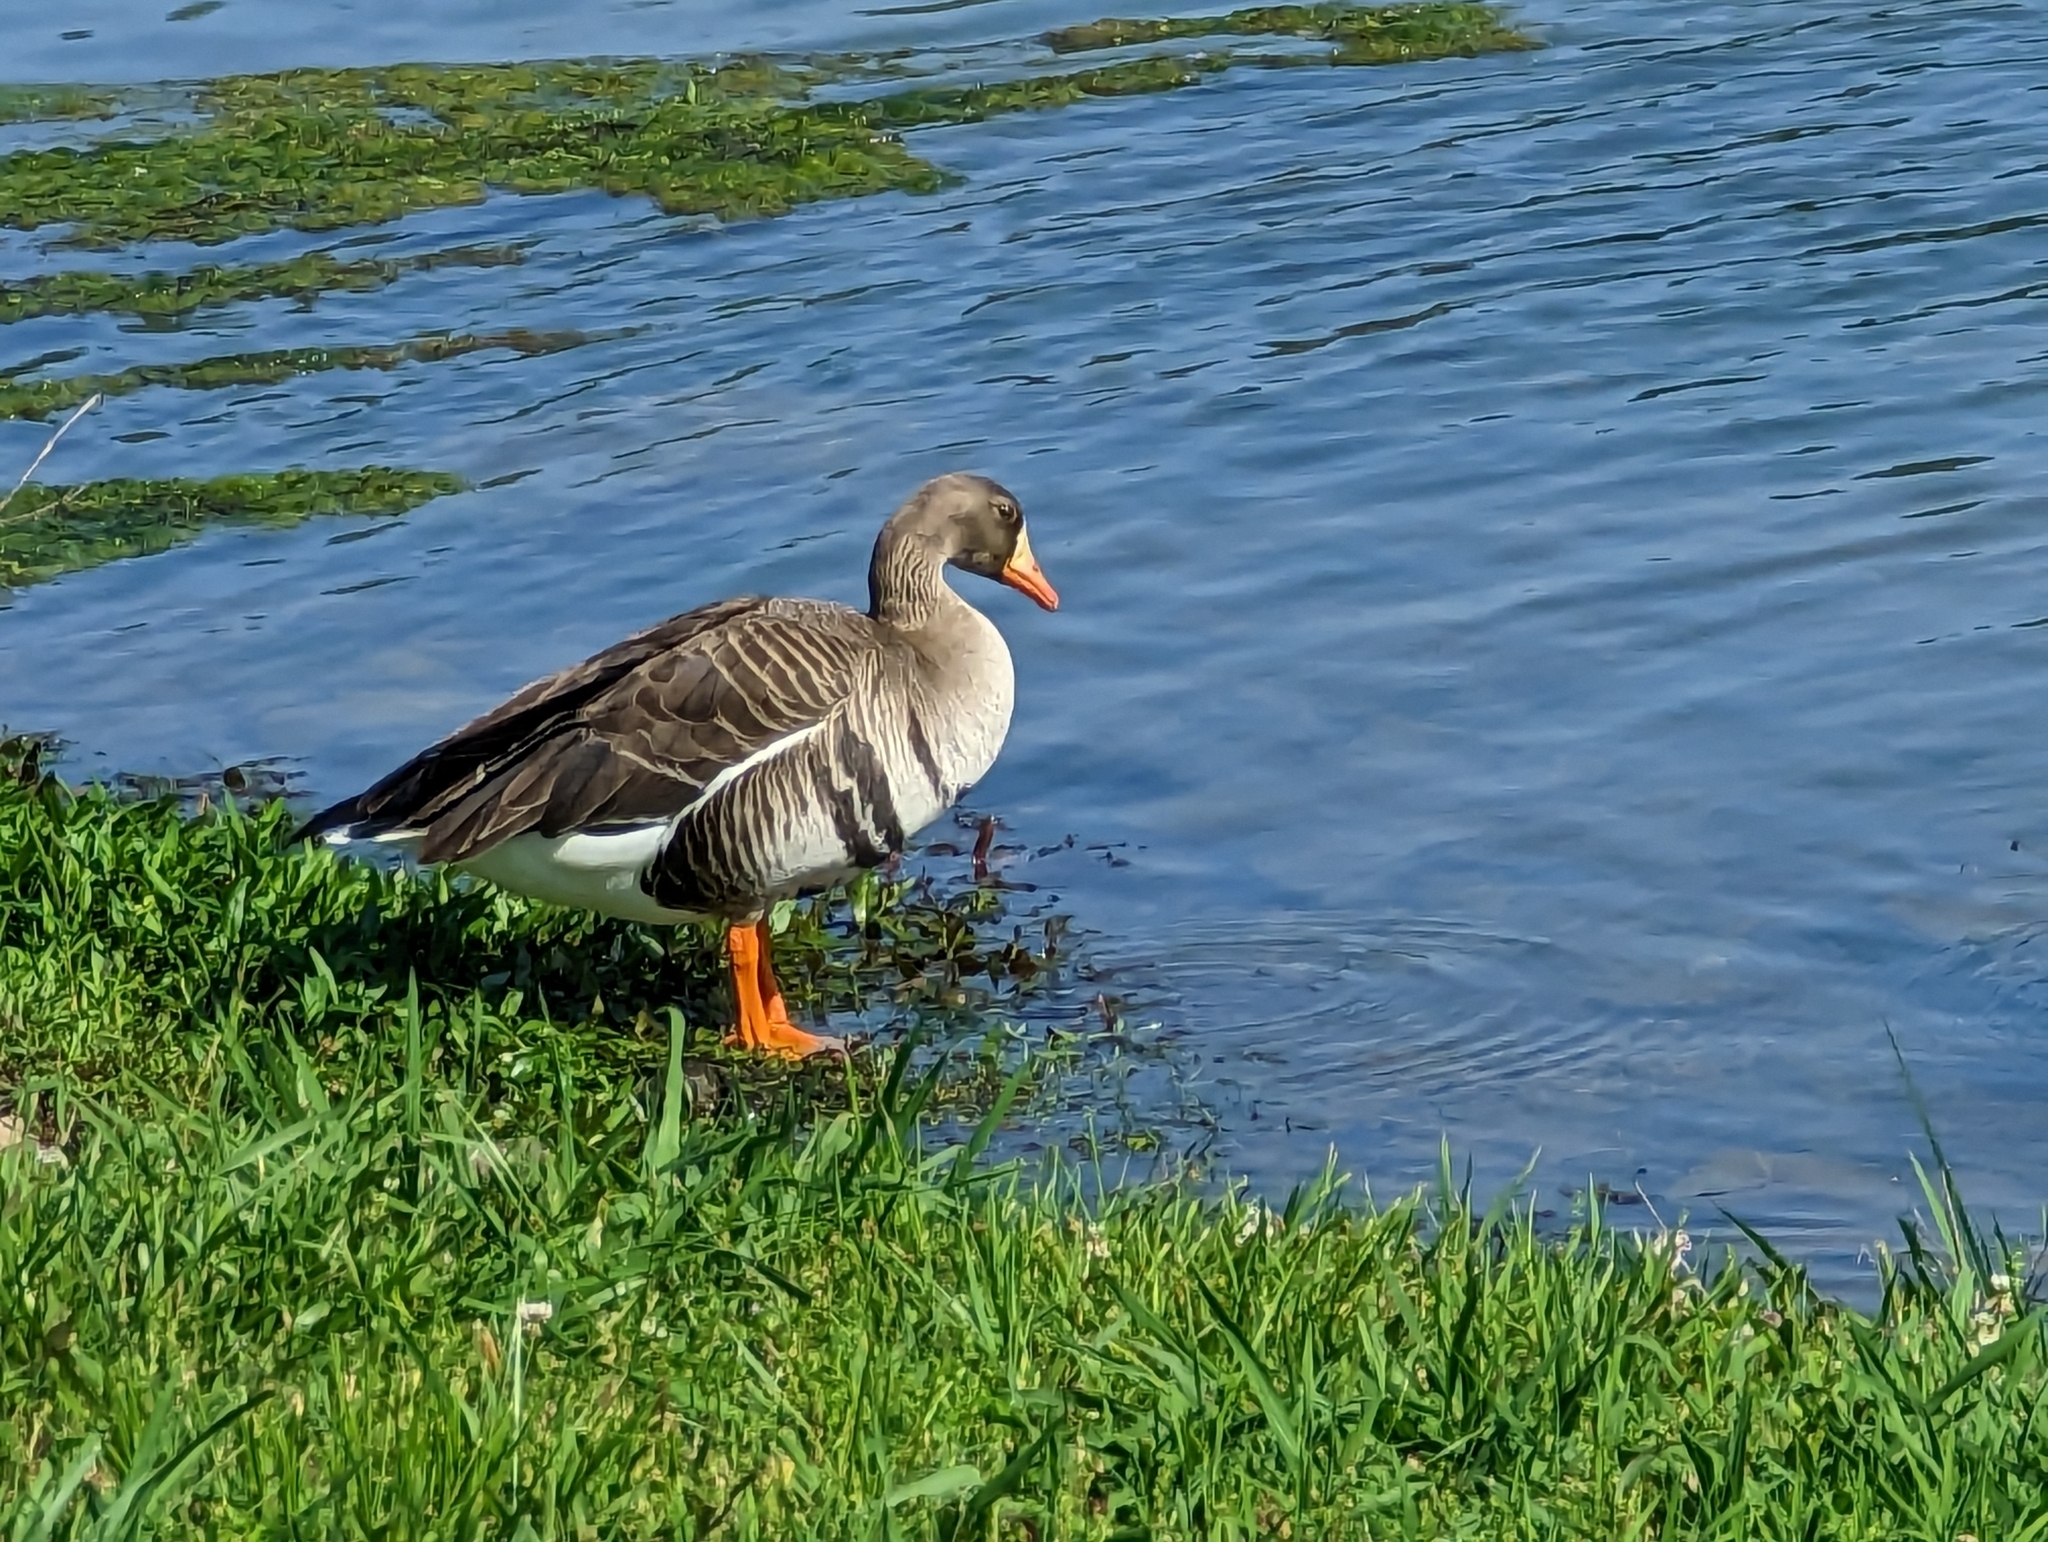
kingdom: Animalia
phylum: Chordata
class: Aves
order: Anseriformes
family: Anatidae
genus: Anser
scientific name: Anser albifrons
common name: Greater white-fronted goose
